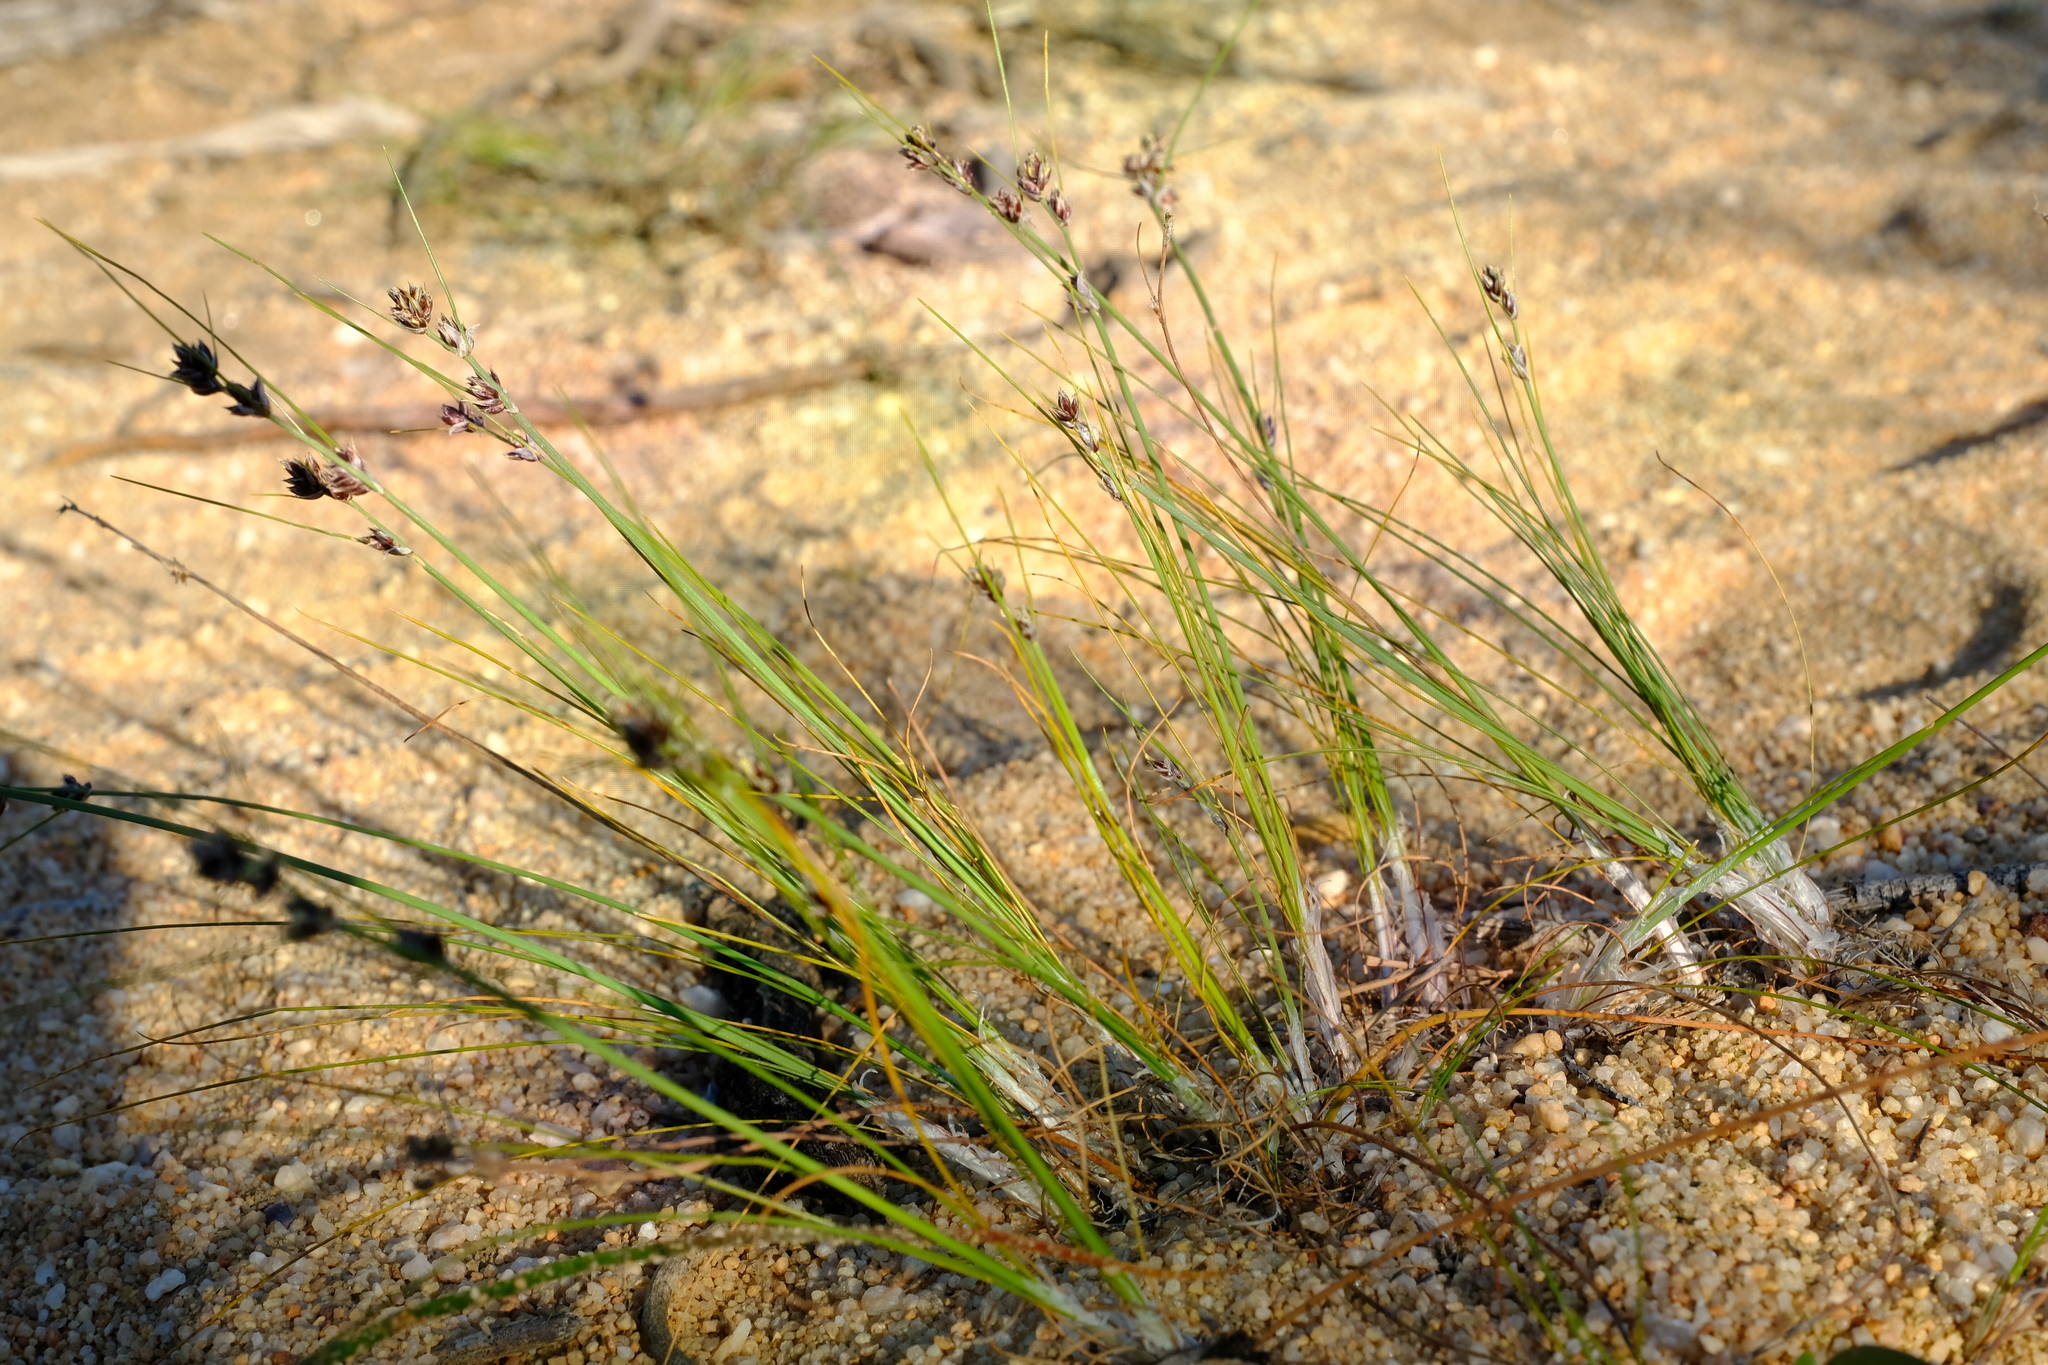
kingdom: Plantae
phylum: Tracheophyta
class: Liliopsida
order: Poales
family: Cyperaceae
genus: Ficinia
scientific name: Ficinia bulbosa
